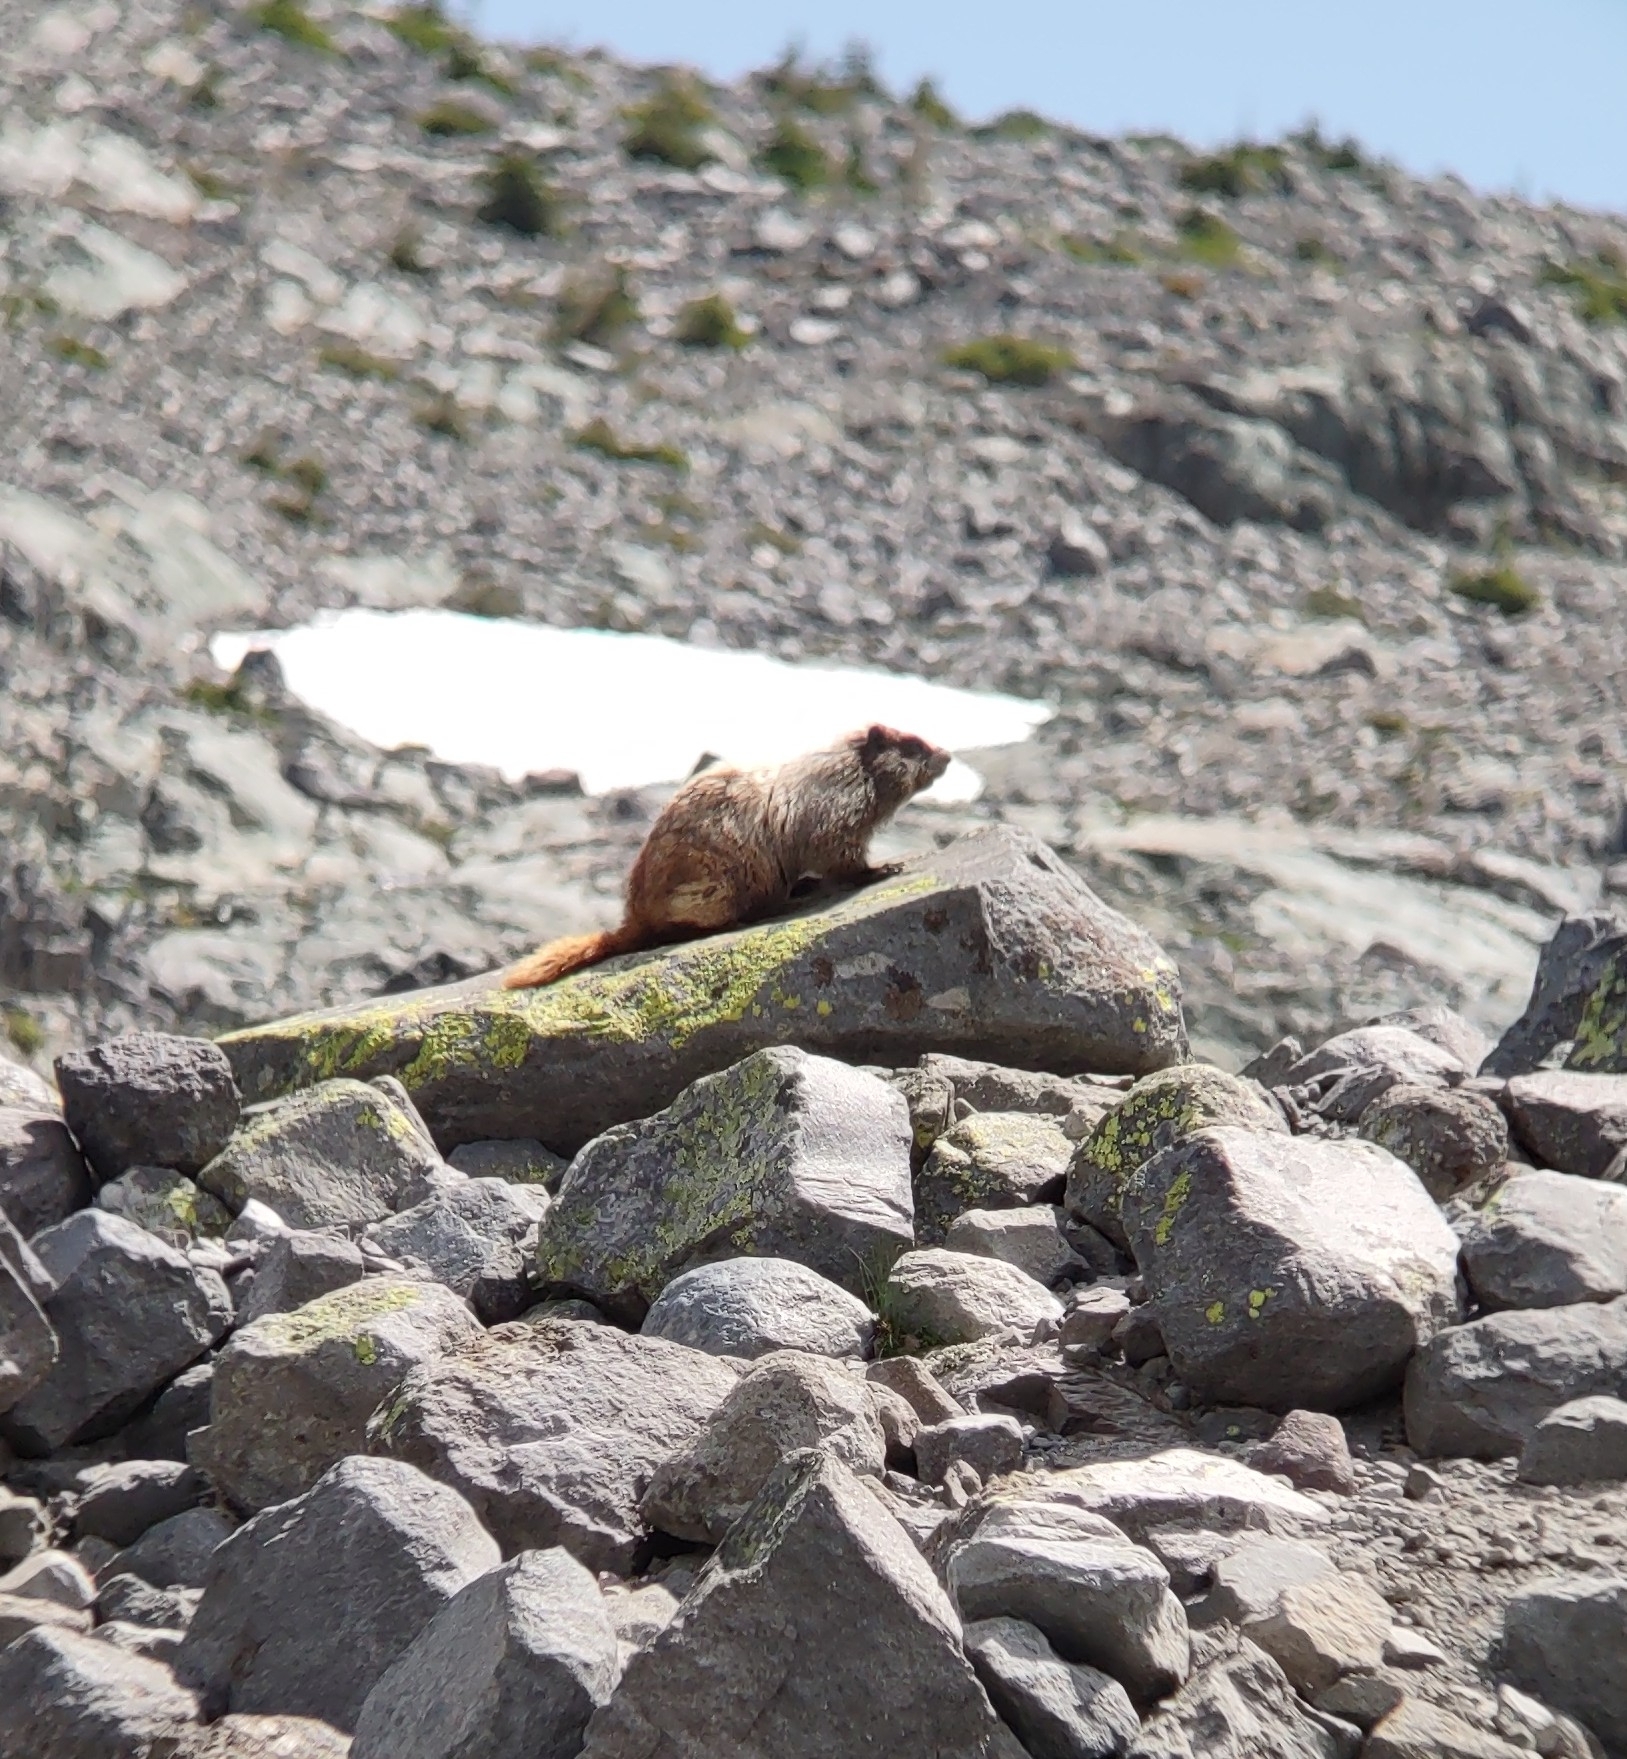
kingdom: Animalia
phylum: Chordata
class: Mammalia
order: Rodentia
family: Sciuridae
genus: Marmota
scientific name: Marmota caligata
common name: Hoary marmot
